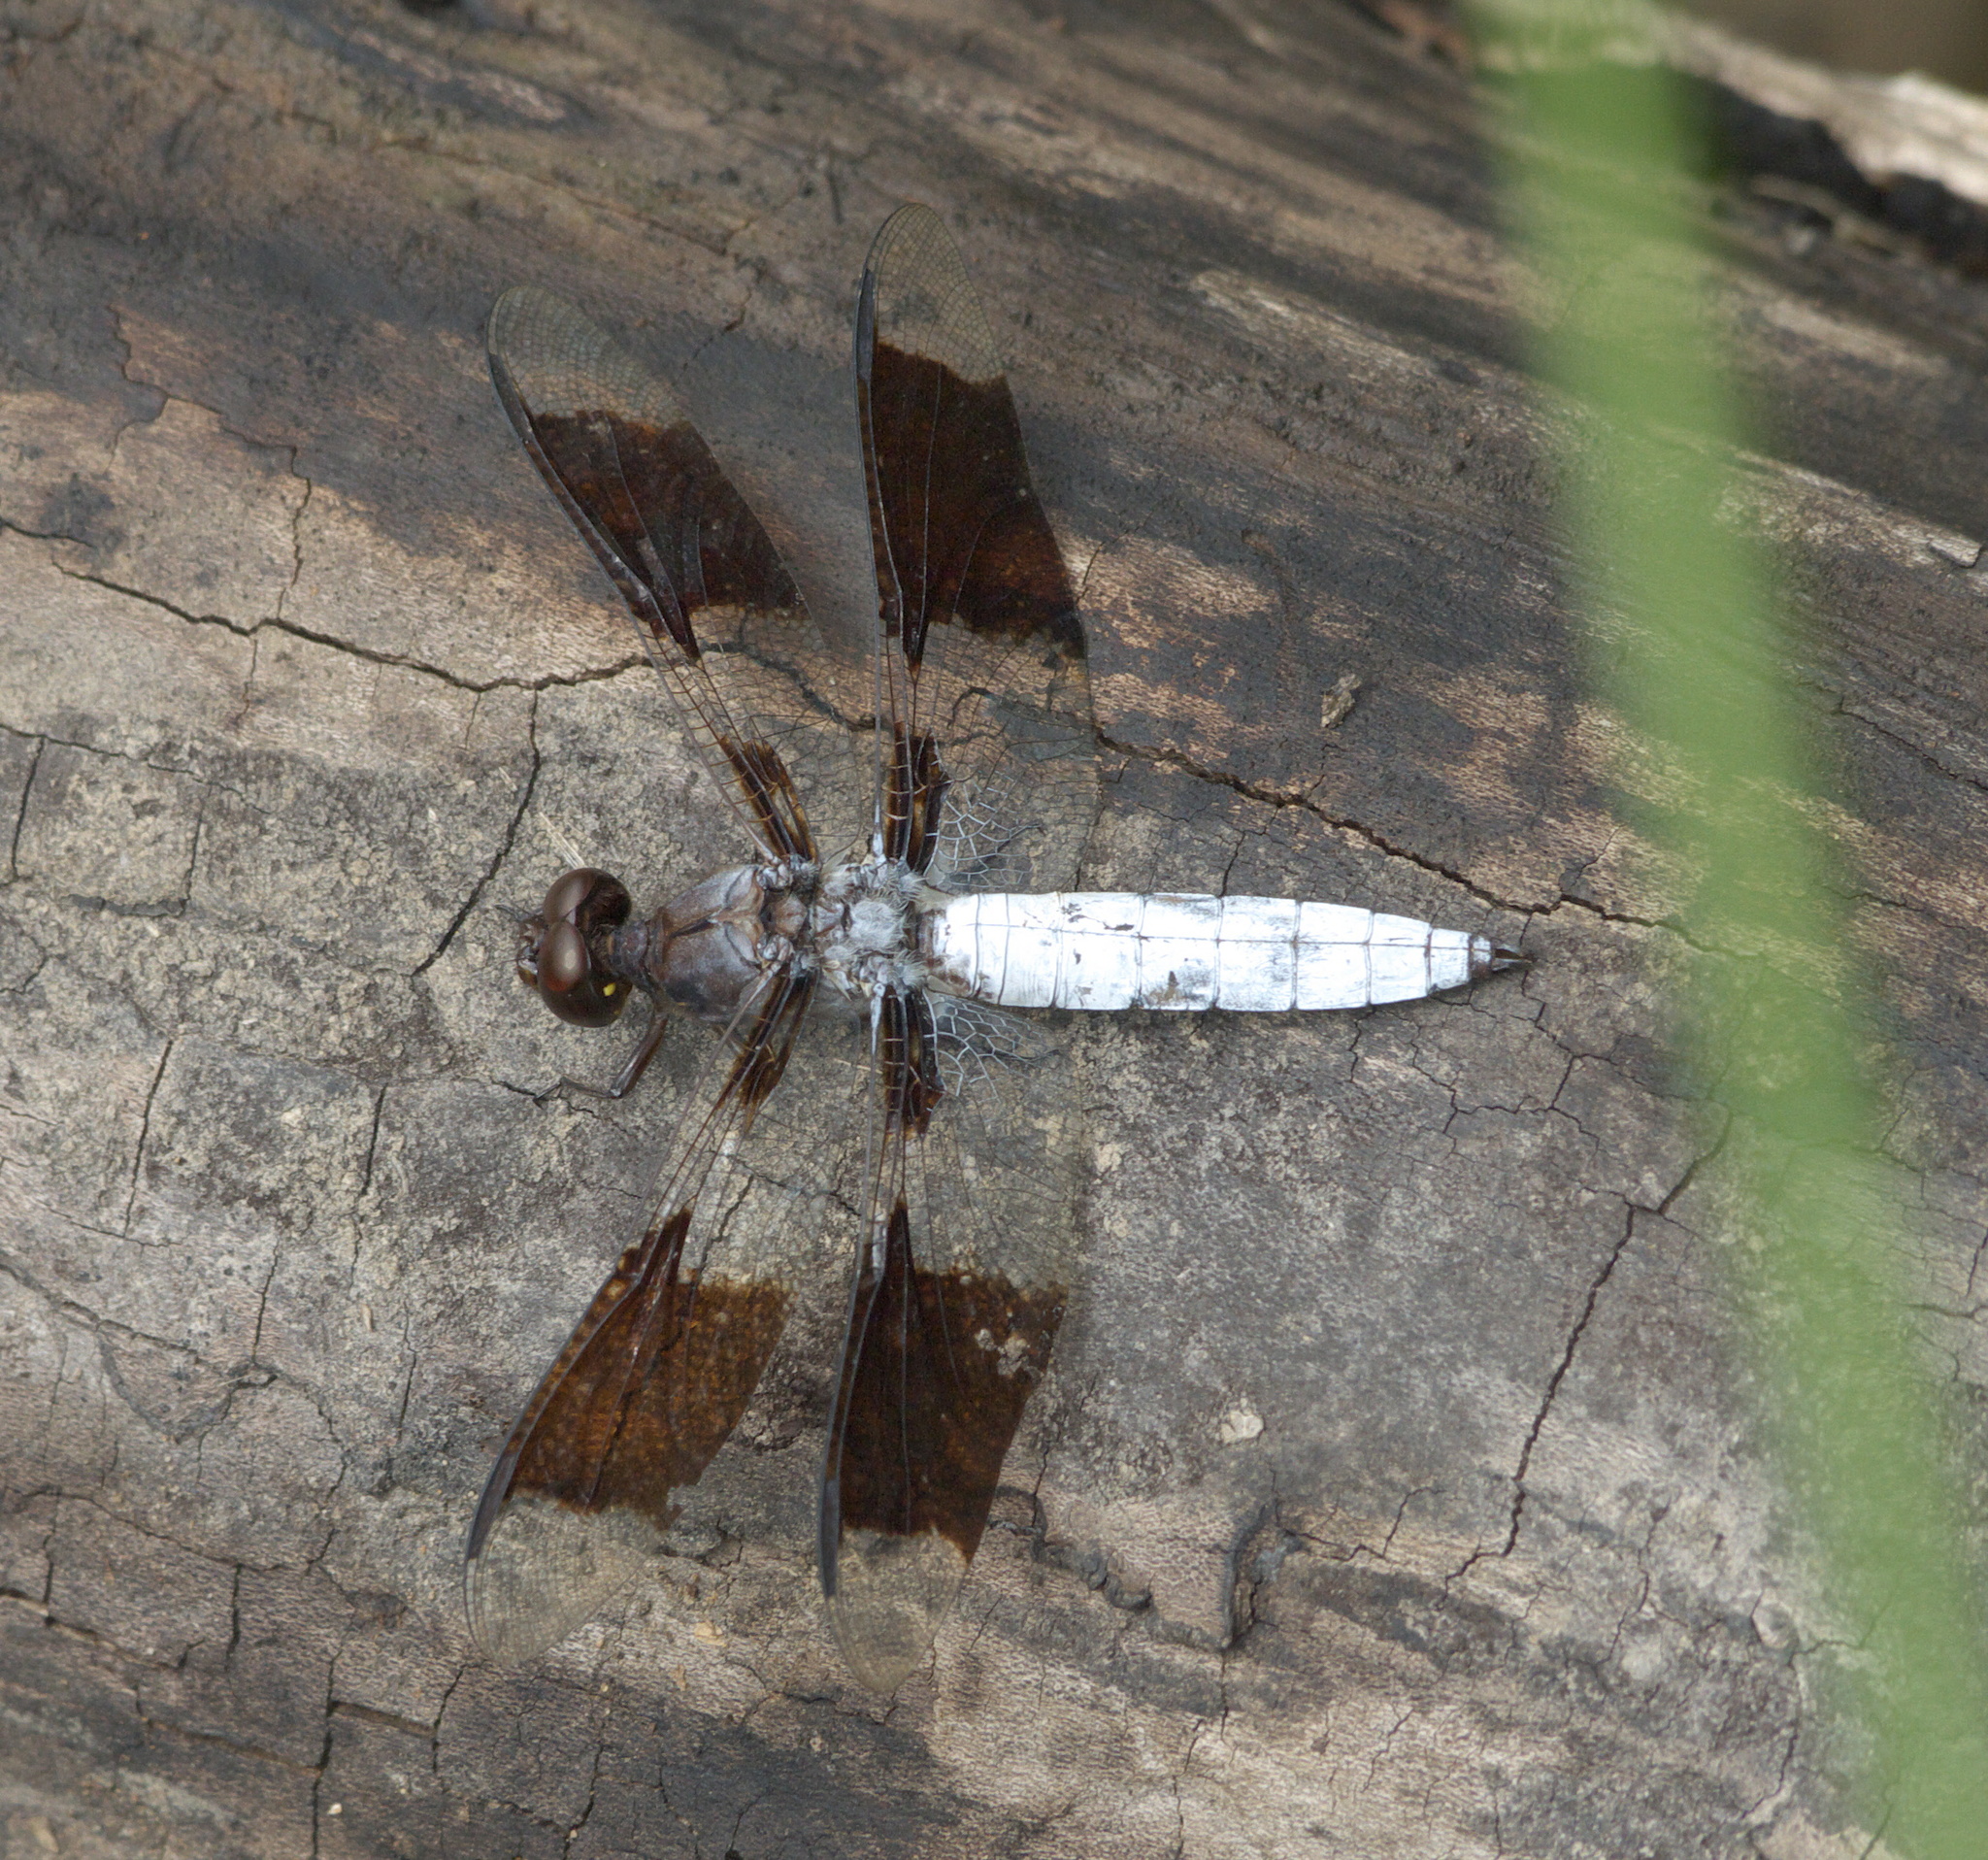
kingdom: Animalia
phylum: Arthropoda
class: Insecta
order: Odonata
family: Libellulidae
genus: Plathemis
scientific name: Plathemis lydia
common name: Common whitetail
